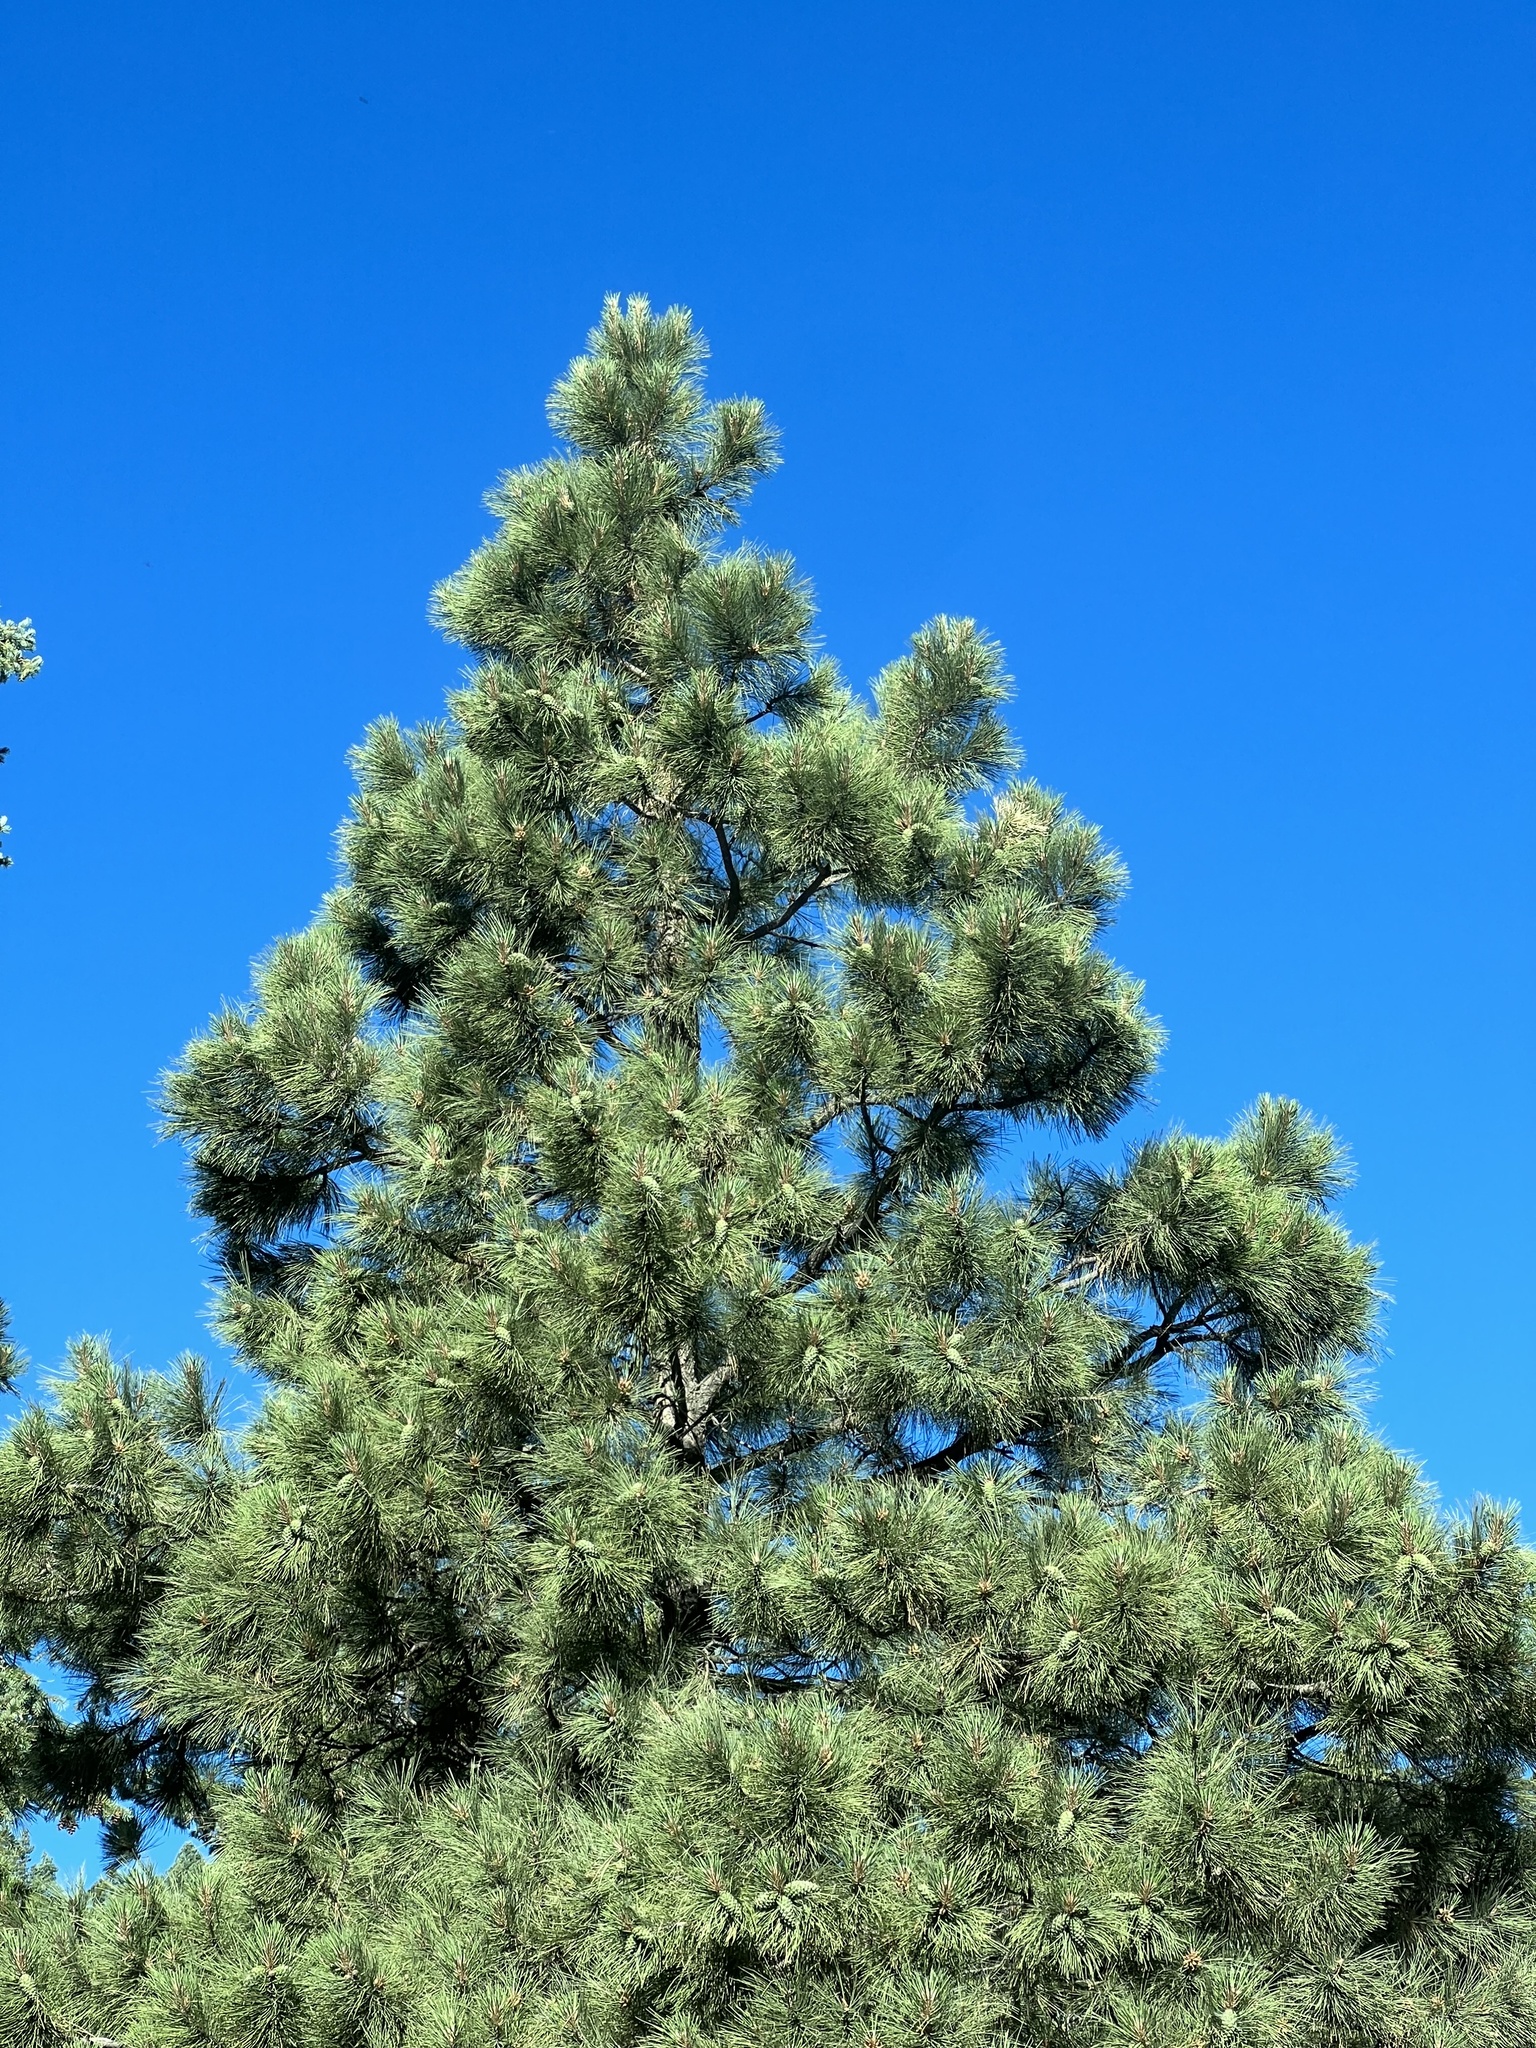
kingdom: Plantae
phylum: Tracheophyta
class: Pinopsida
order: Pinales
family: Pinaceae
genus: Pinus
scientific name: Pinus ponderosa
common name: Western yellow-pine
